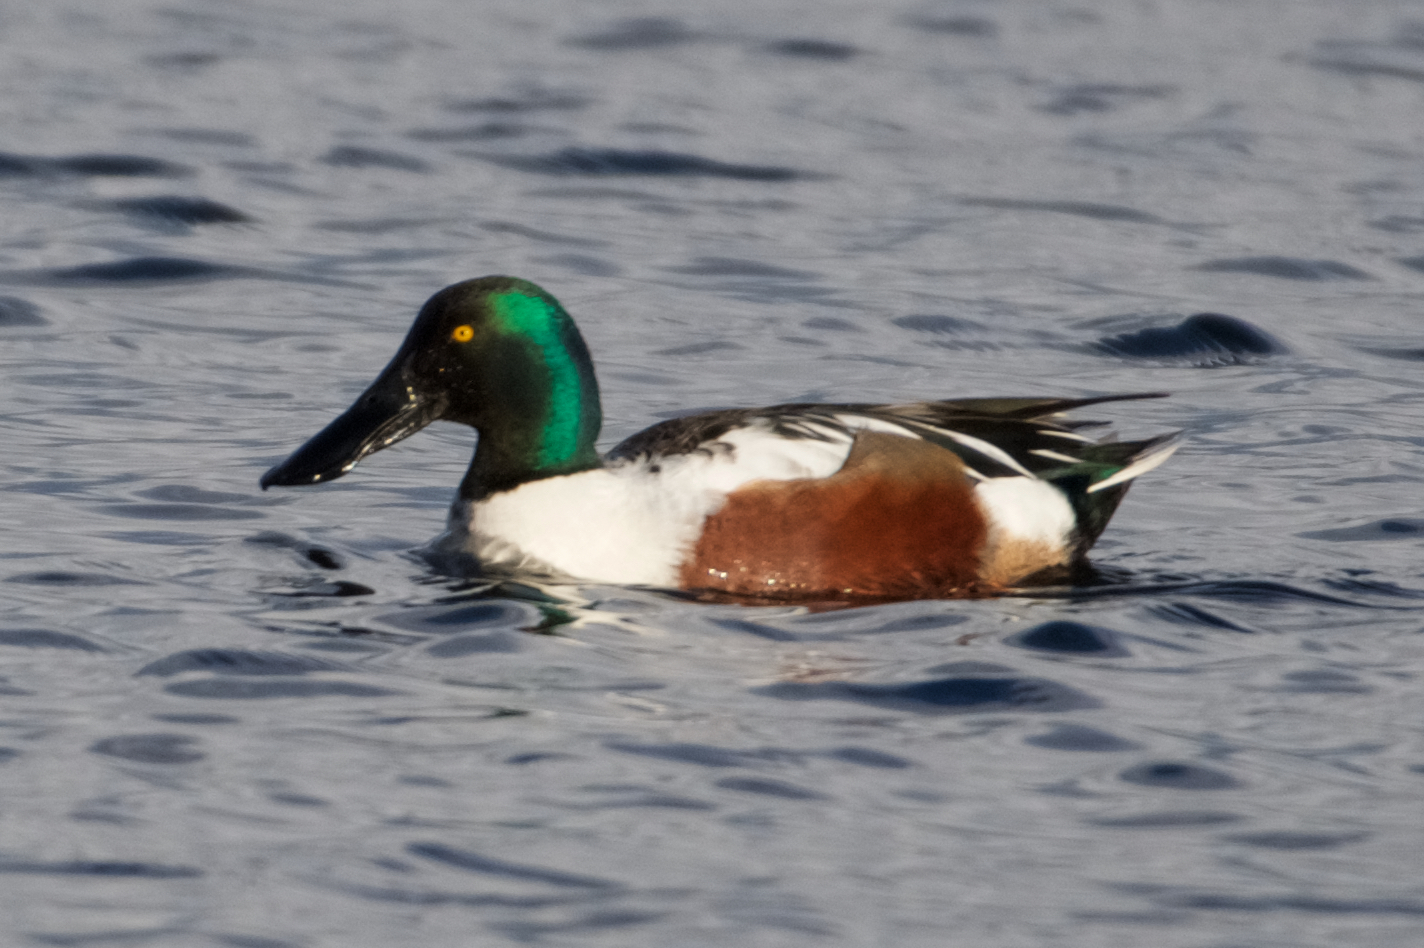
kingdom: Animalia
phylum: Chordata
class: Aves
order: Anseriformes
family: Anatidae
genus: Spatula
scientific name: Spatula clypeata
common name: Northern shoveler
